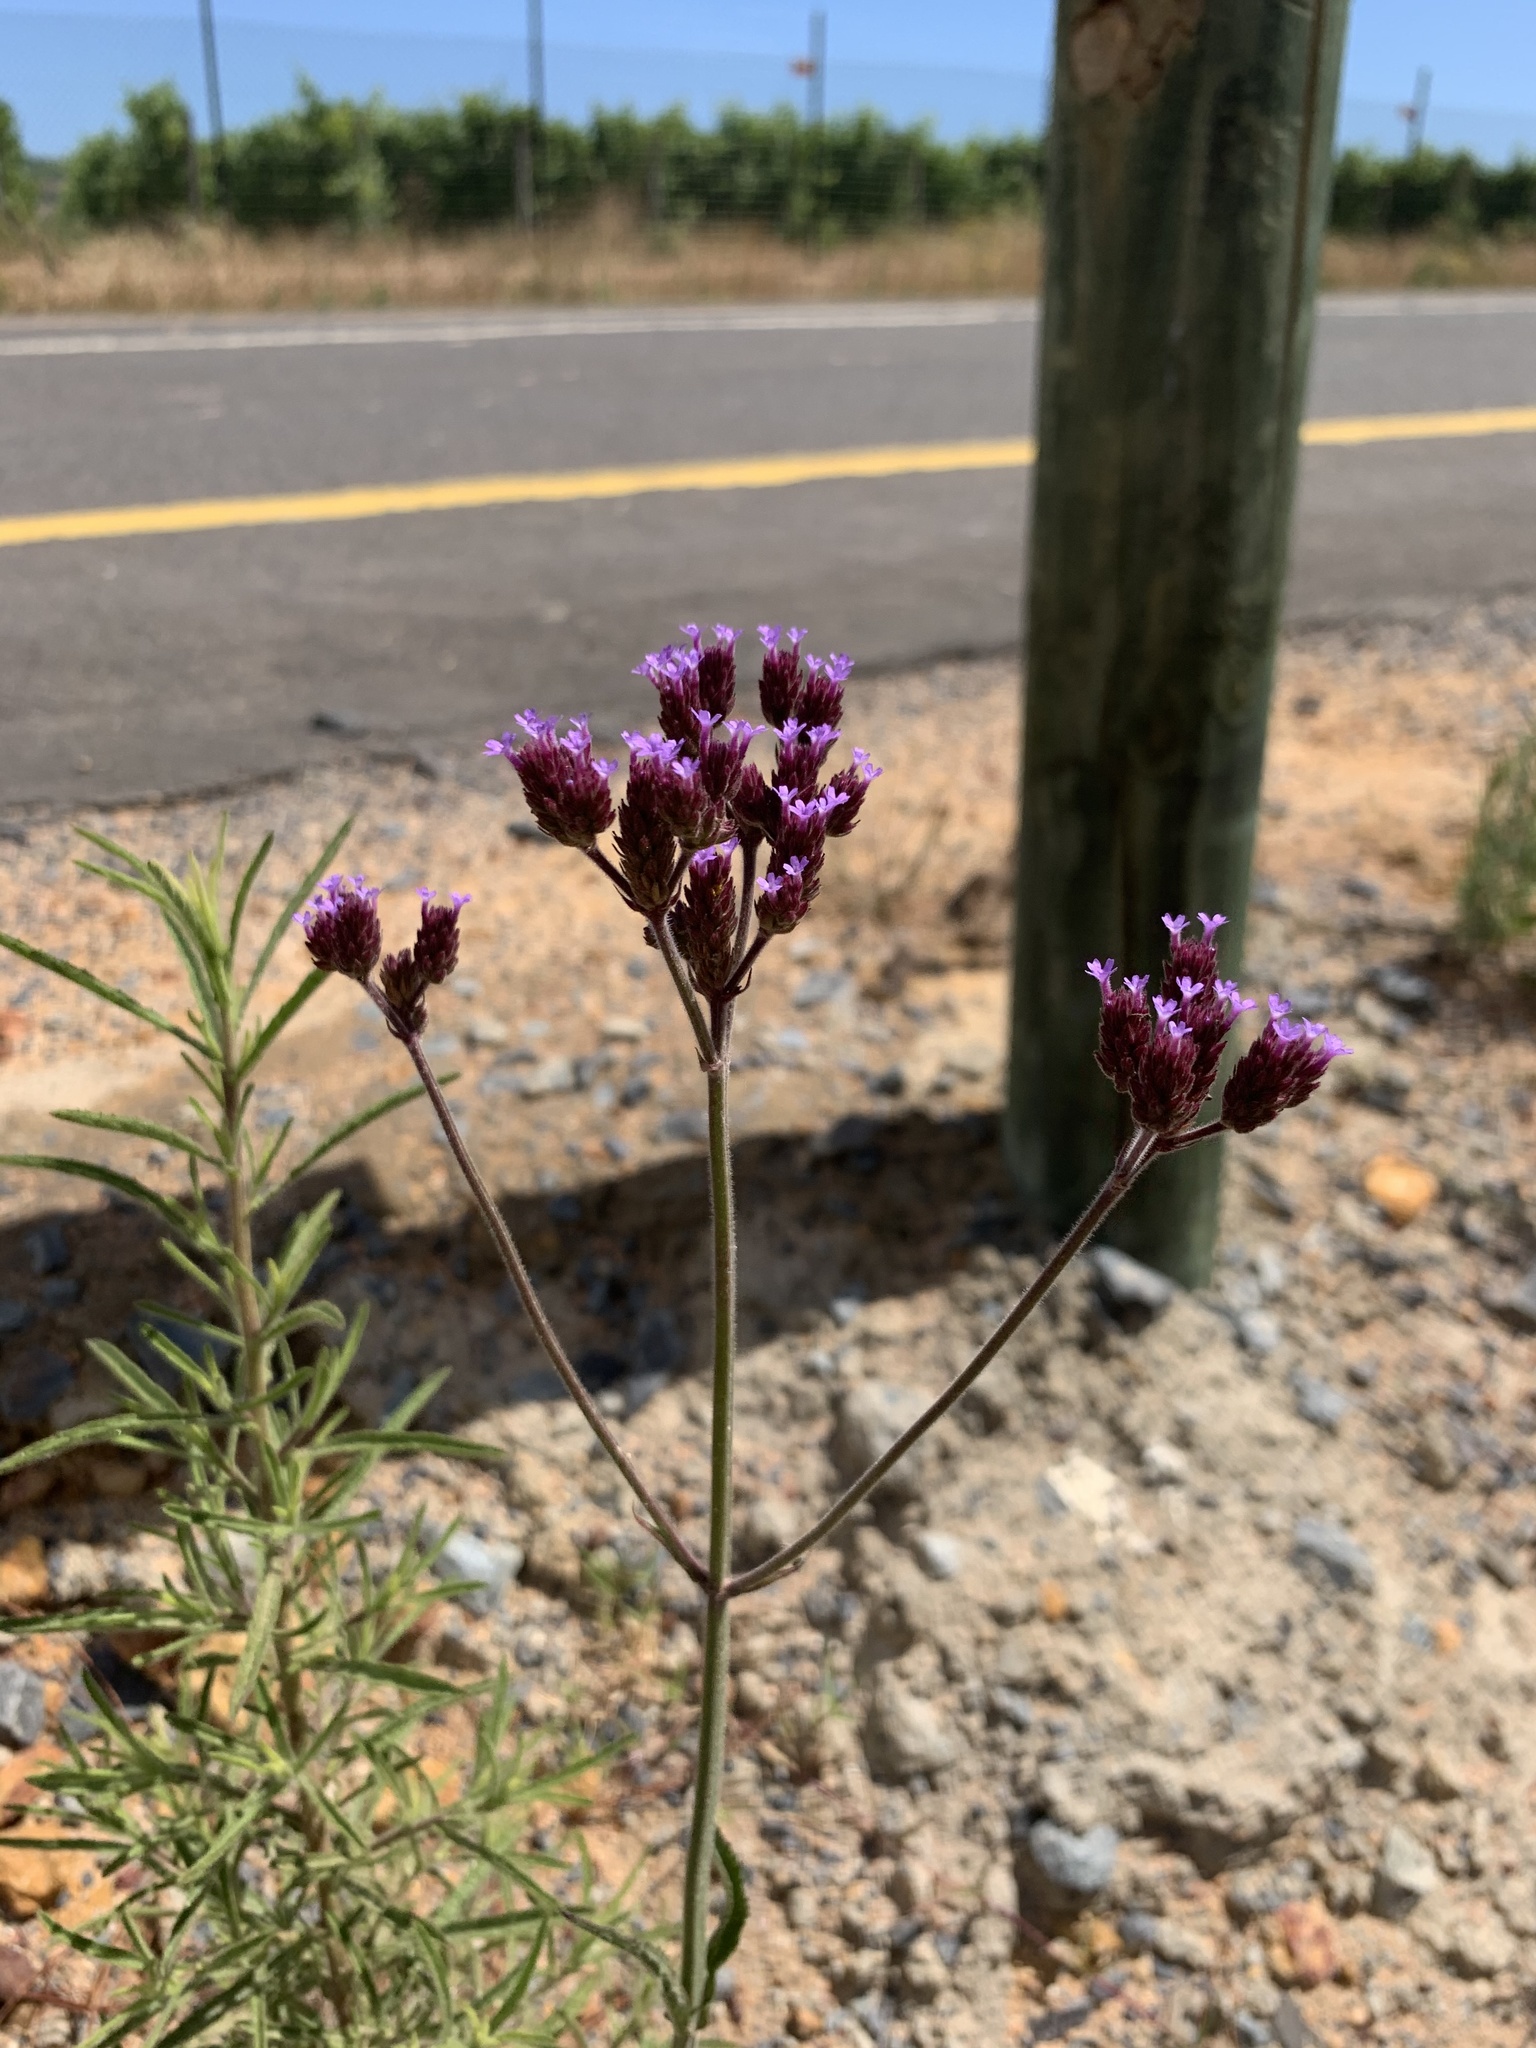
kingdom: Plantae
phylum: Tracheophyta
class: Magnoliopsida
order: Lamiales
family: Verbenaceae
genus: Verbena
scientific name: Verbena bonariensis
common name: Purpletop vervain
